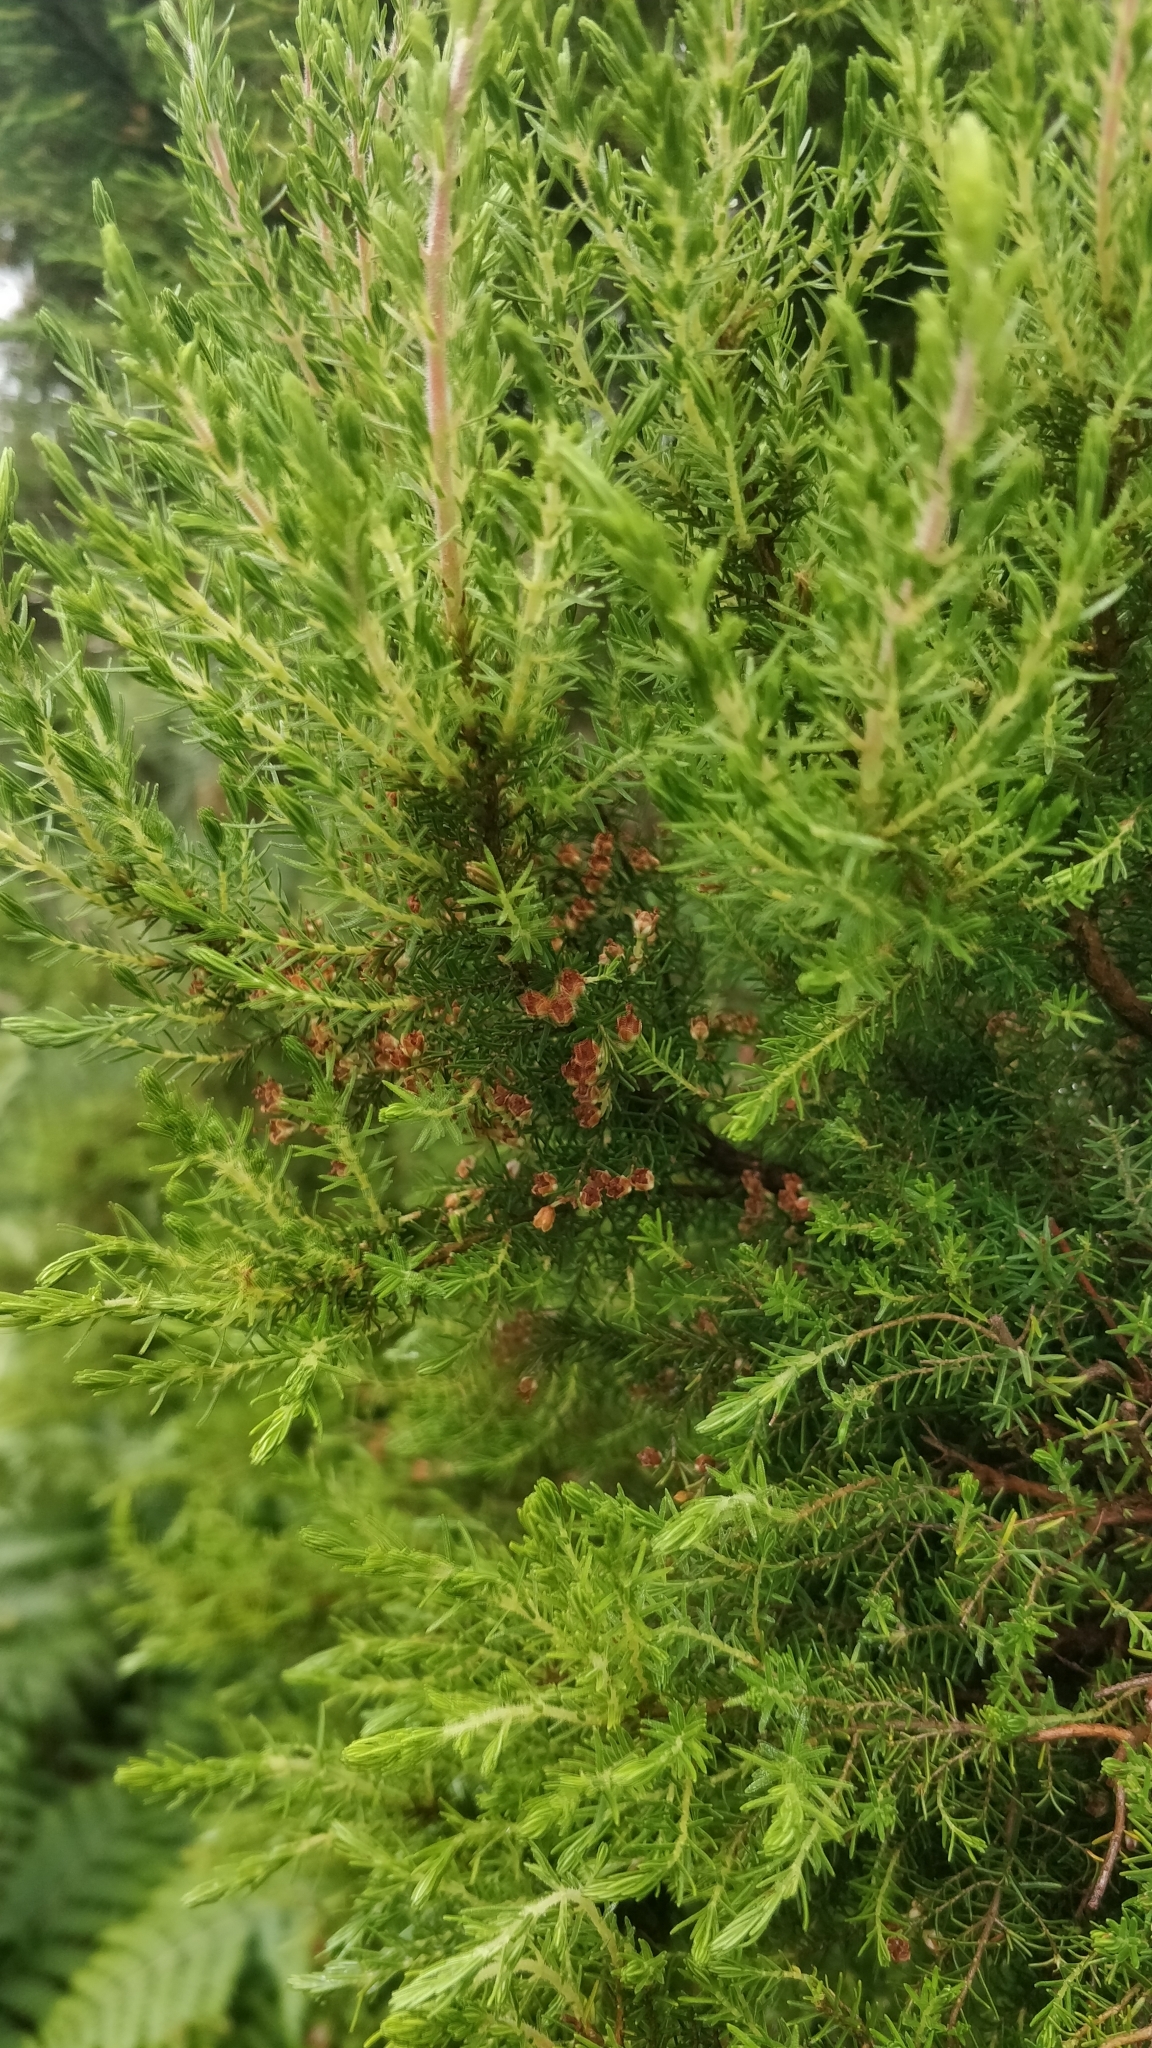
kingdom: Plantae
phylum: Tracheophyta
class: Magnoliopsida
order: Ericales
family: Ericaceae
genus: Erica
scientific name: Erica canariensis
